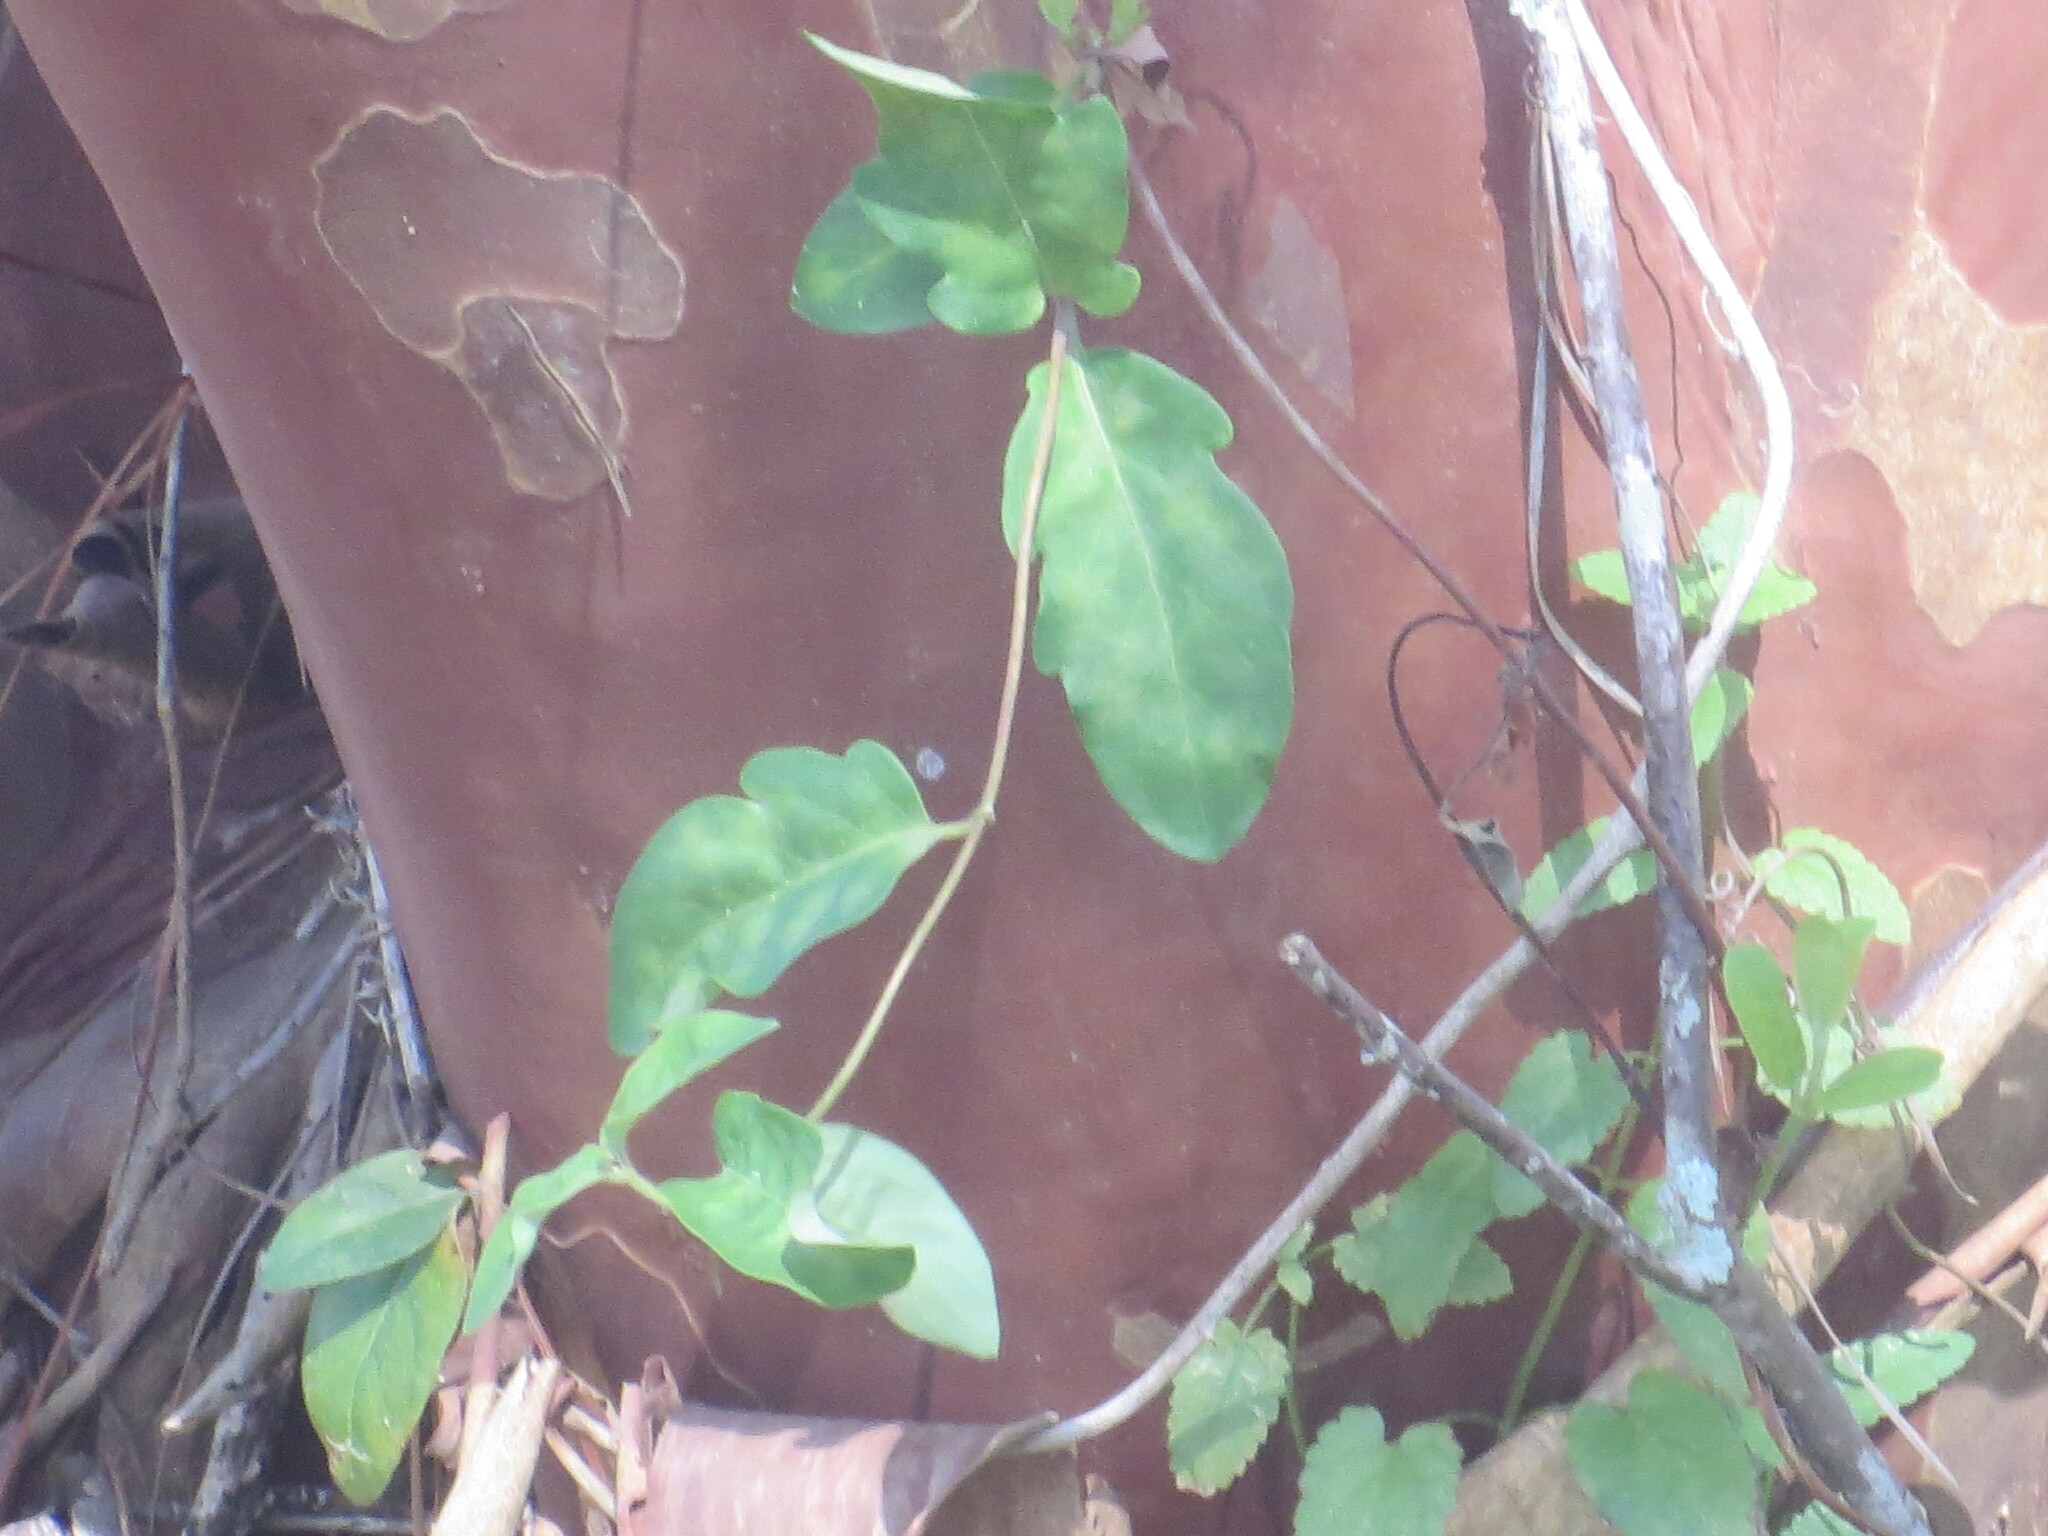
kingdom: Plantae
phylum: Tracheophyta
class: Magnoliopsida
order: Dipsacales
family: Caprifoliaceae
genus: Lonicera
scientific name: Lonicera japonica
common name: Japanese honeysuckle
